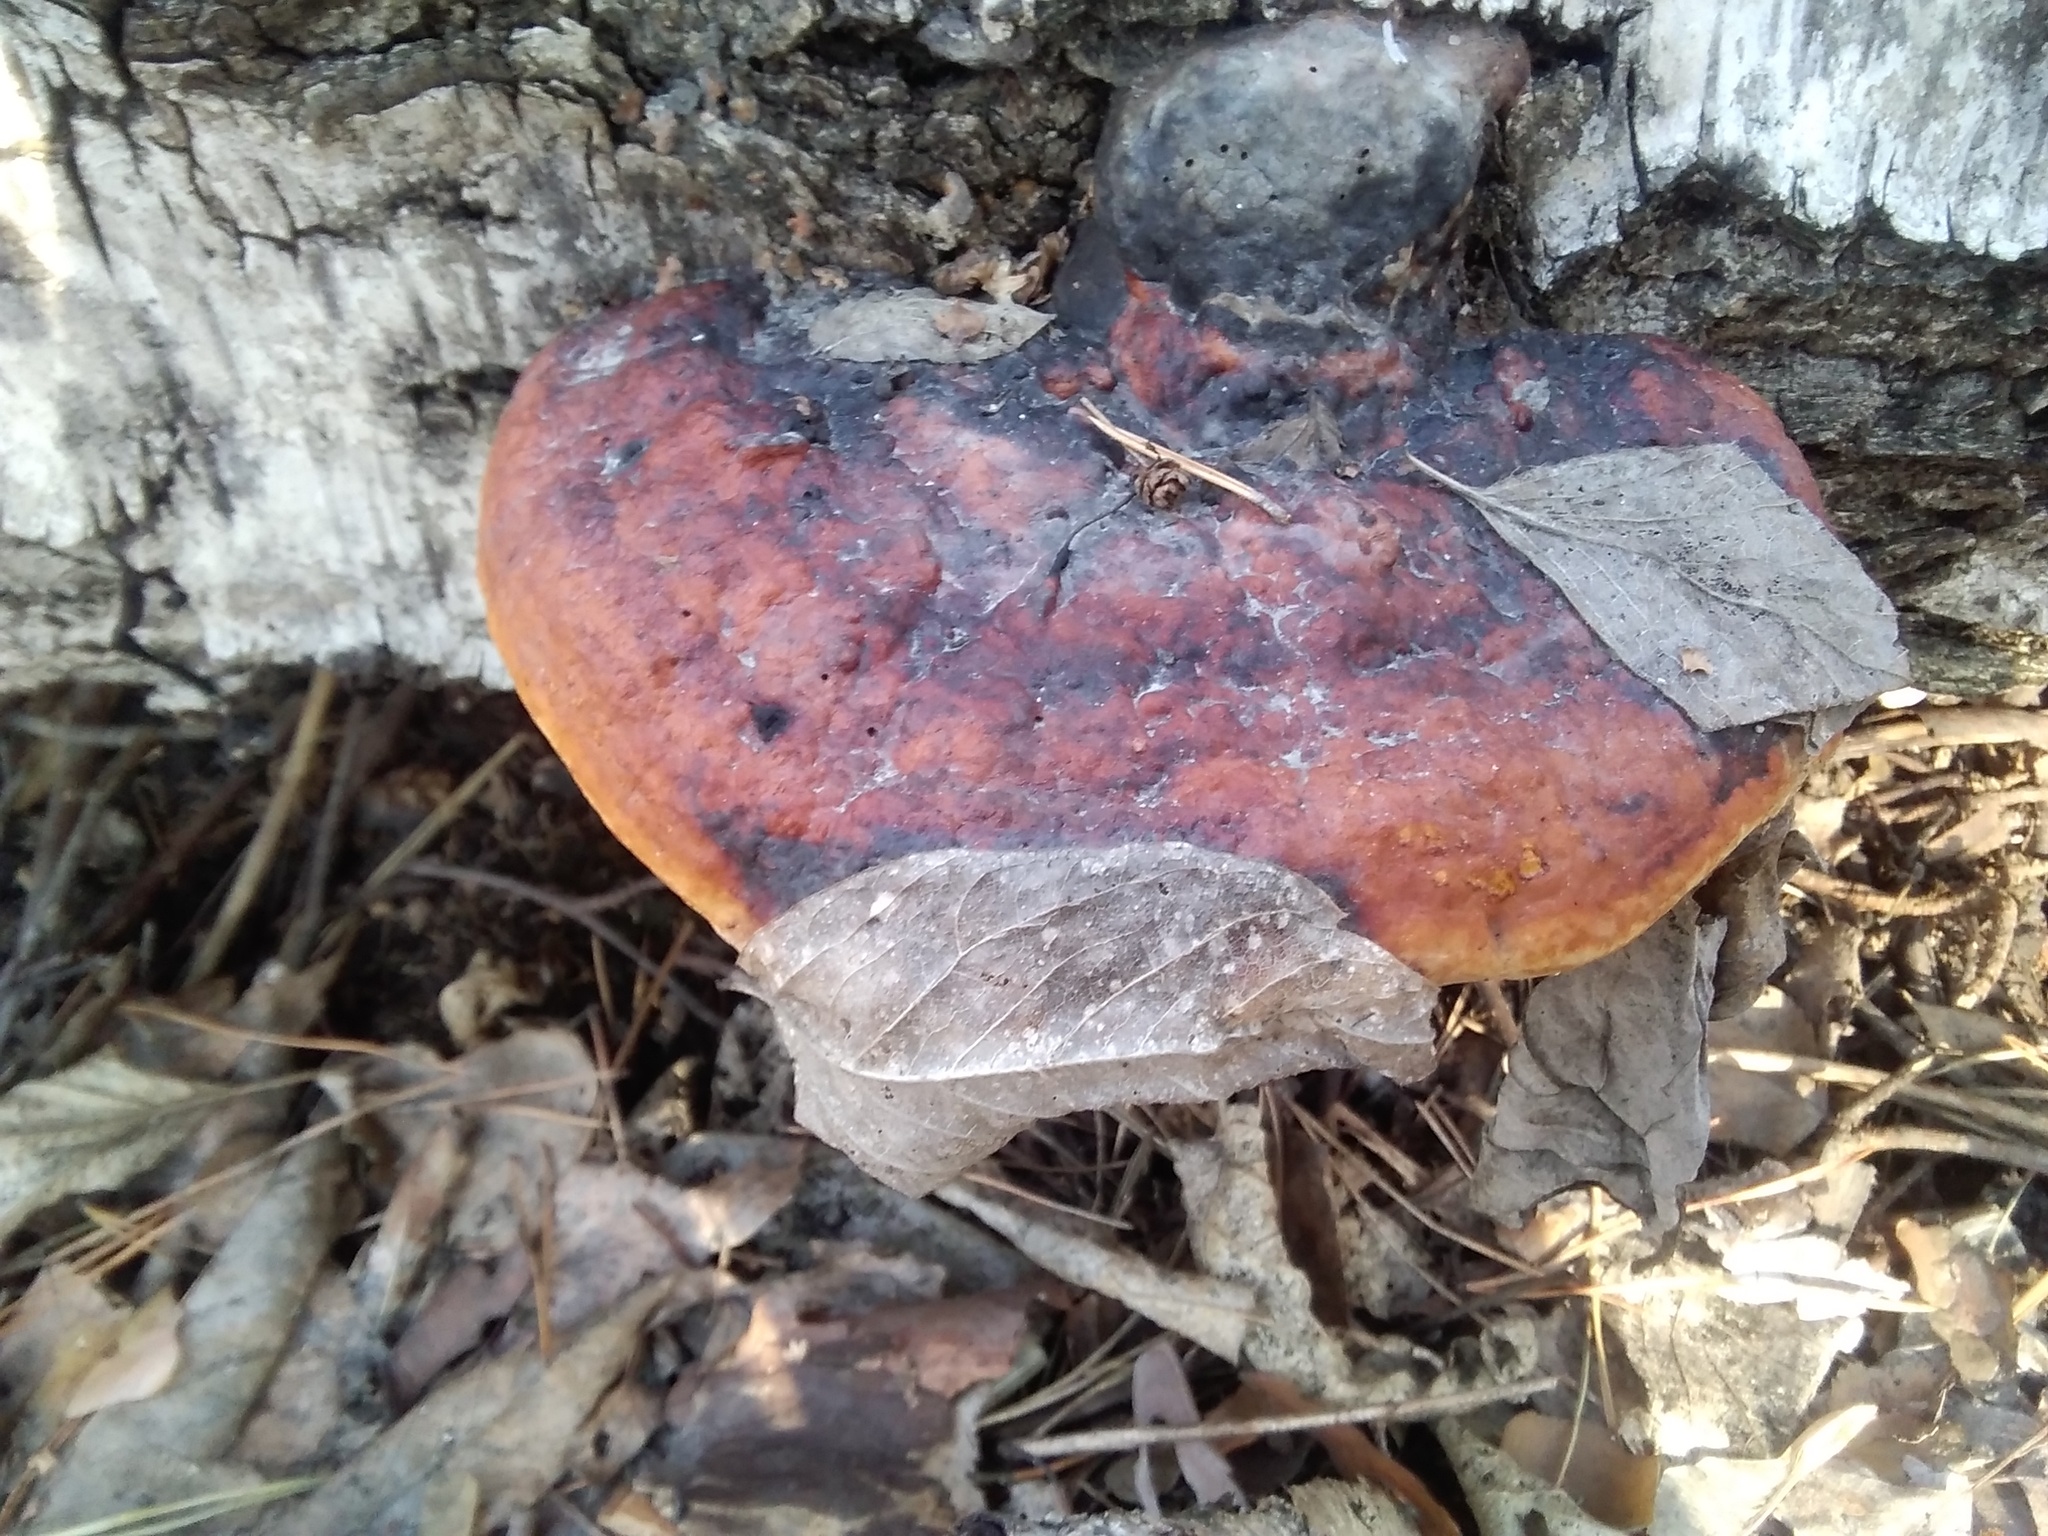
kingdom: Fungi
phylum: Basidiomycota
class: Agaricomycetes
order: Polyporales
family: Fomitopsidaceae
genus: Fomitopsis
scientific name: Fomitopsis pinicola
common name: Red-belted bracket
